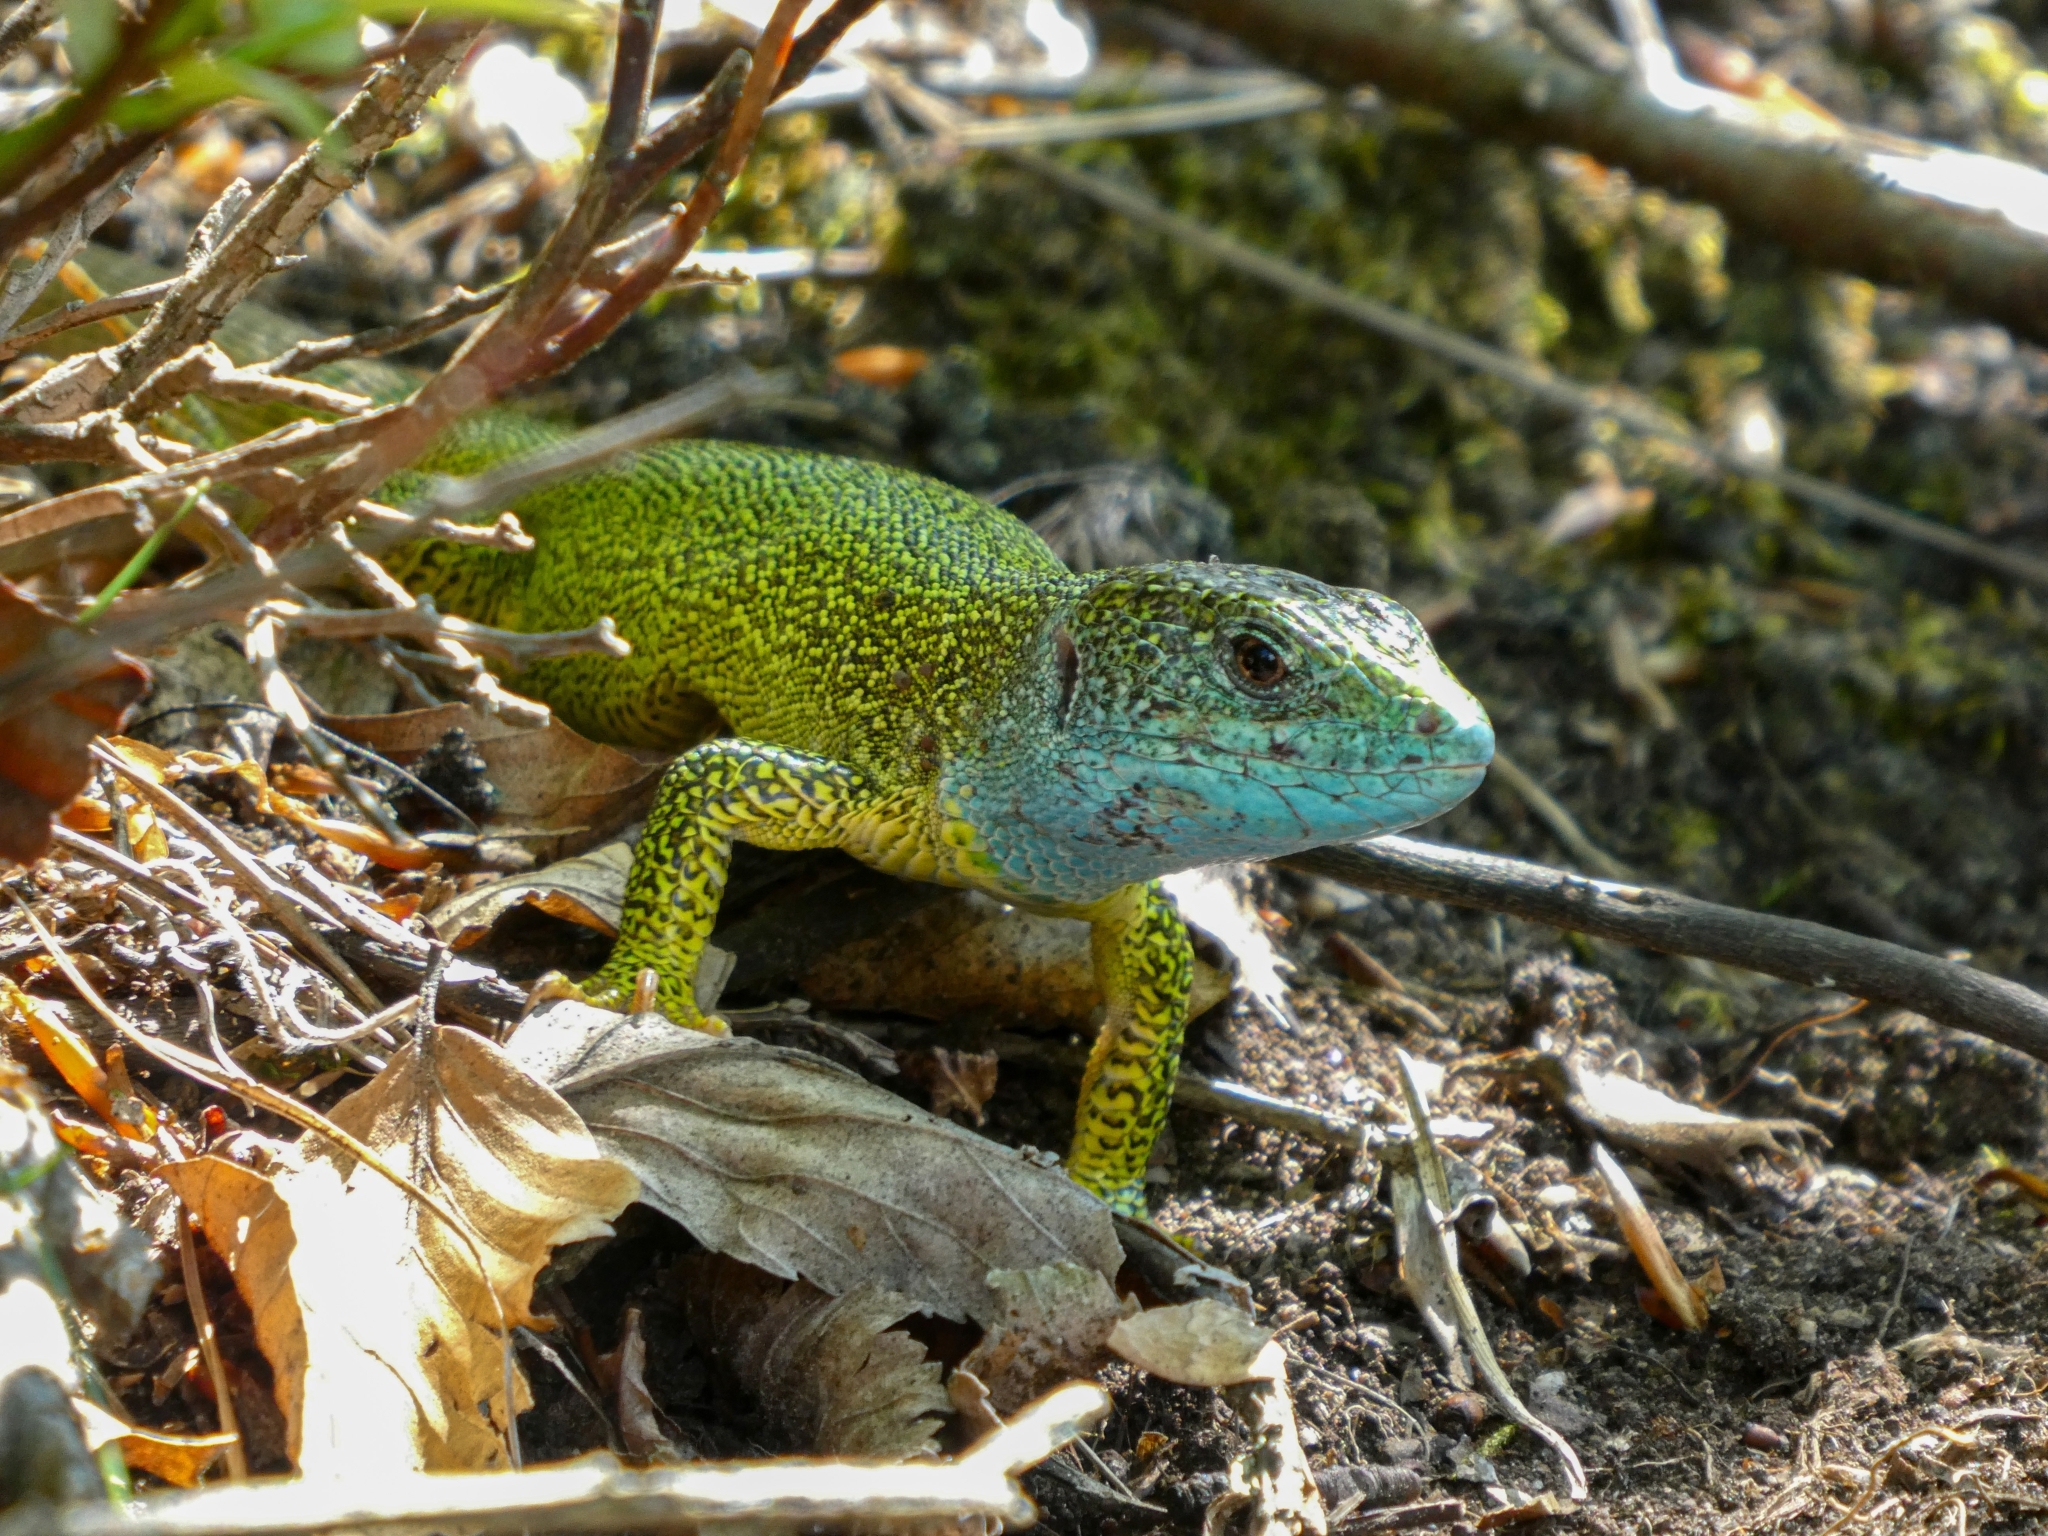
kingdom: Animalia
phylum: Chordata
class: Squamata
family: Lacertidae
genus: Lacerta
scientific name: Lacerta viridis
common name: European green lizard
